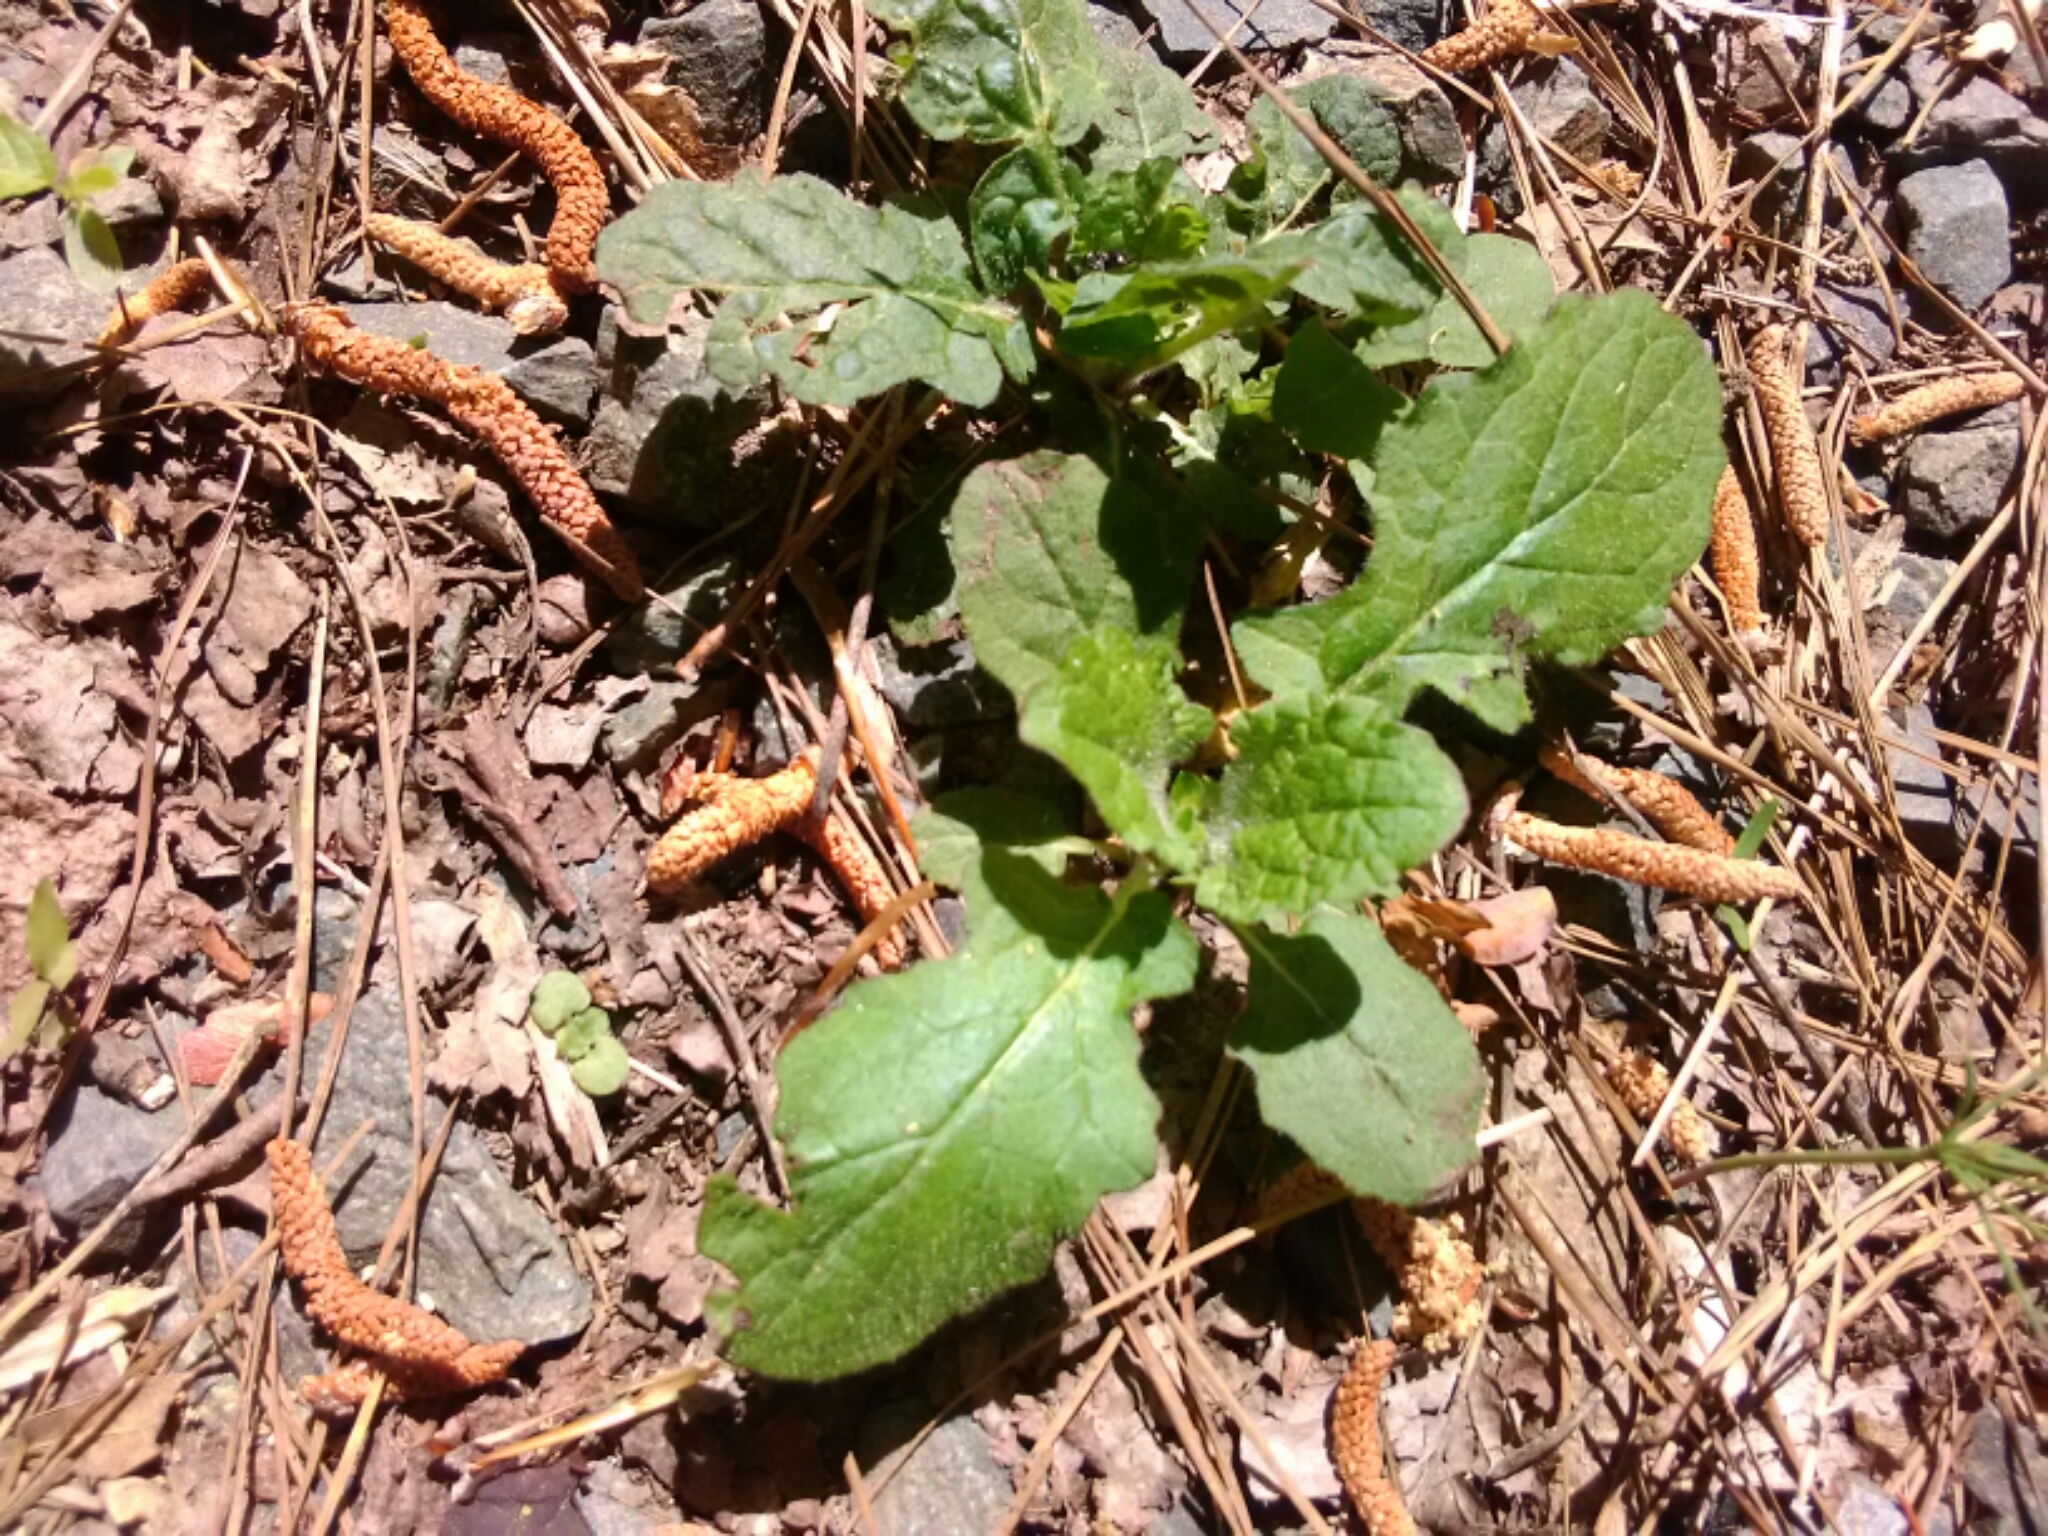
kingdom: Plantae
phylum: Tracheophyta
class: Magnoliopsida
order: Lamiales
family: Lamiaceae
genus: Salvia
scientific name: Salvia lyrata
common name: Cancerweed
